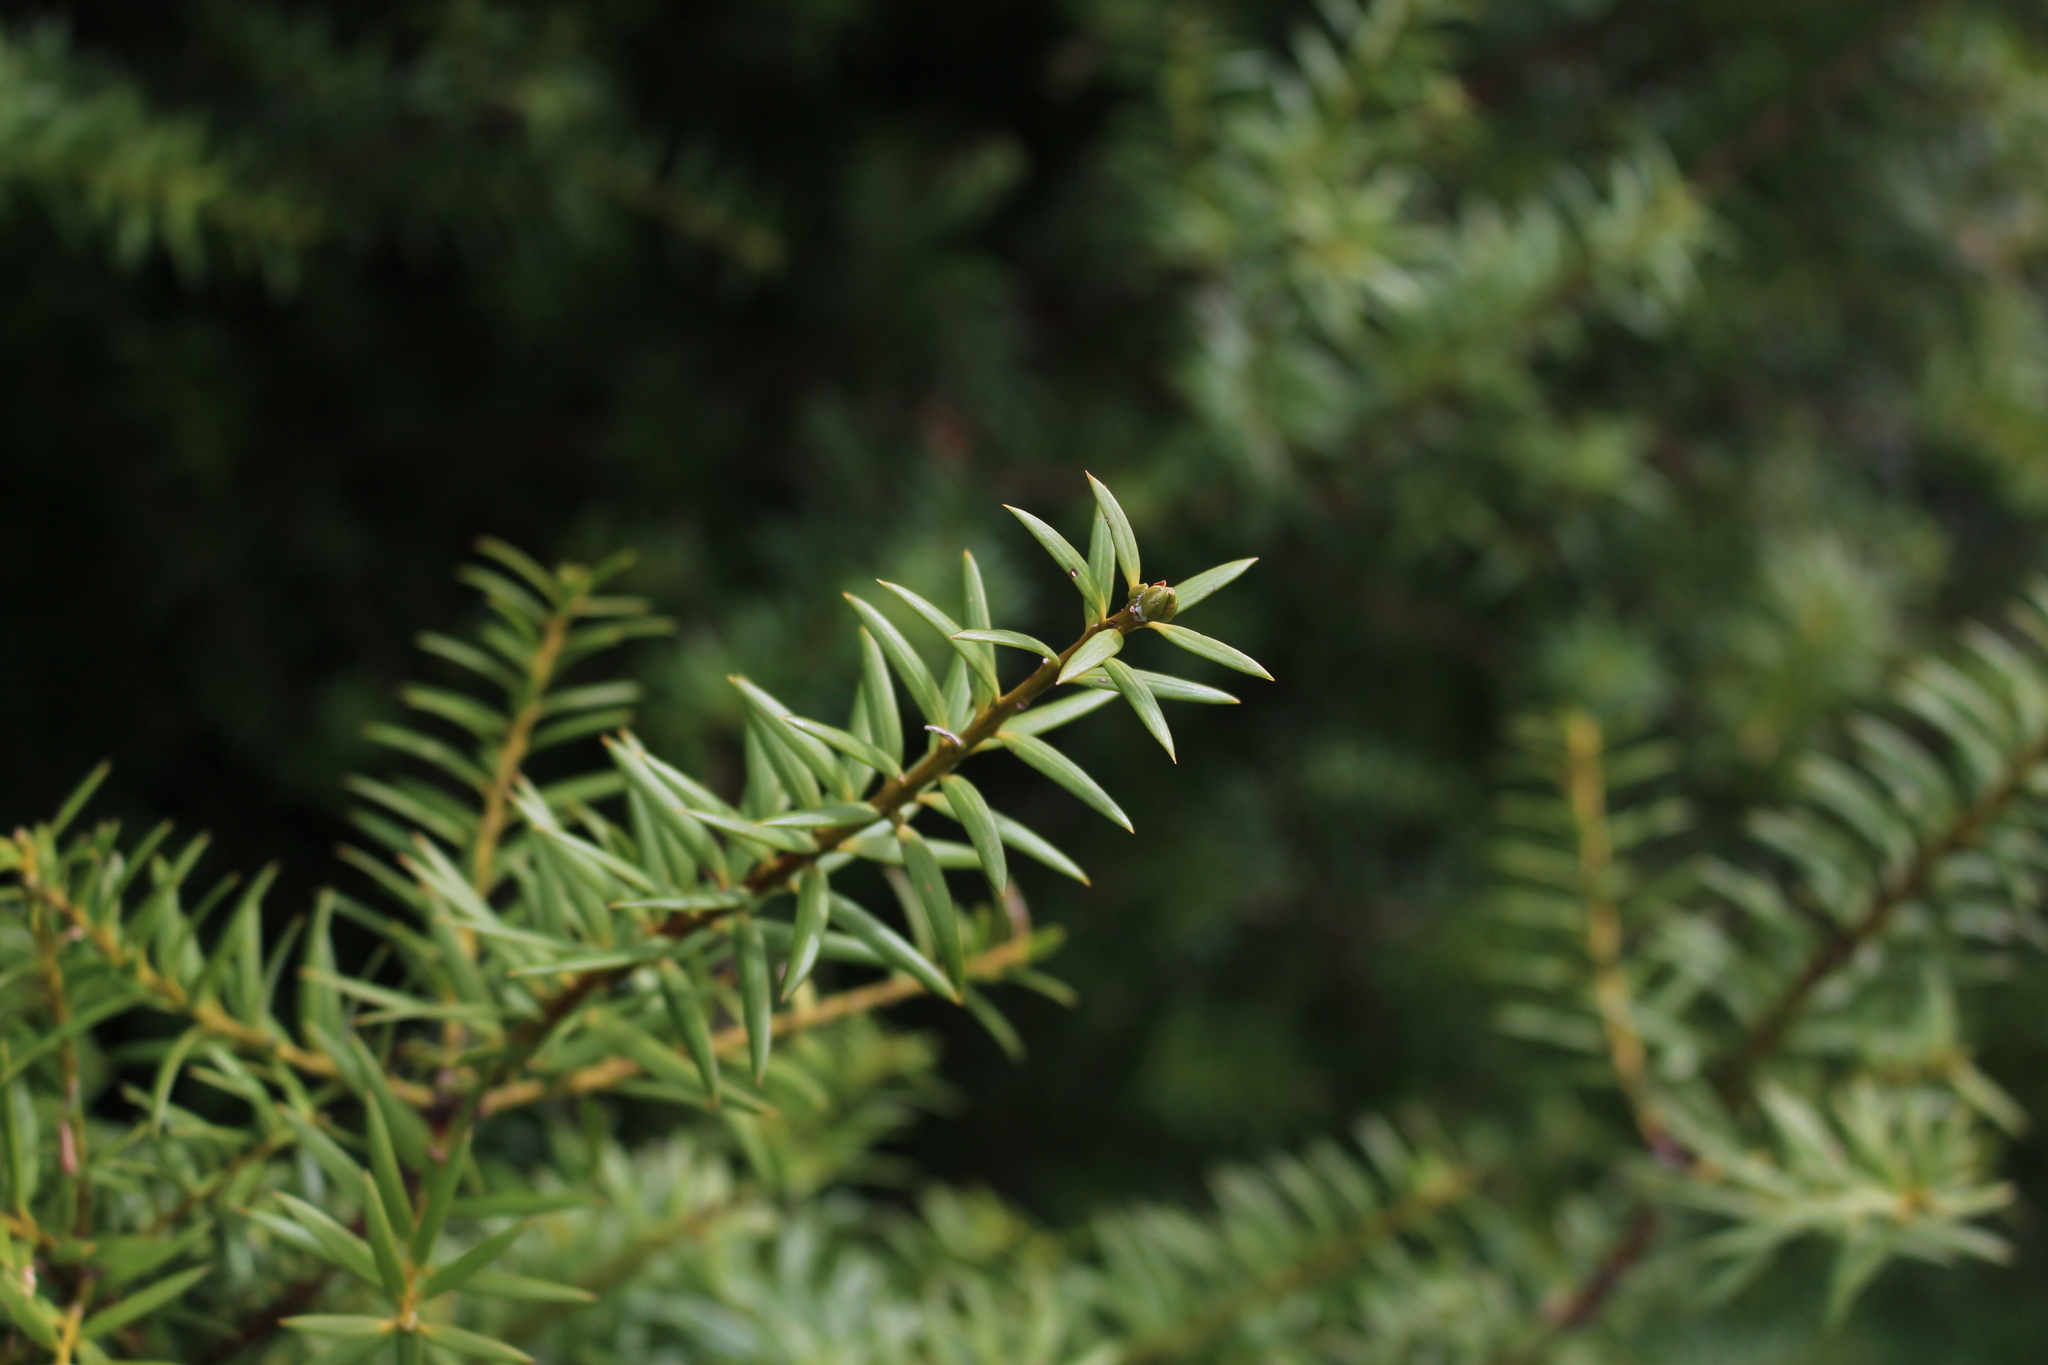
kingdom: Plantae
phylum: Tracheophyta
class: Pinopsida
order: Pinales
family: Podocarpaceae
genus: Podocarpus
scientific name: Podocarpus laetus
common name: Hall's totara
